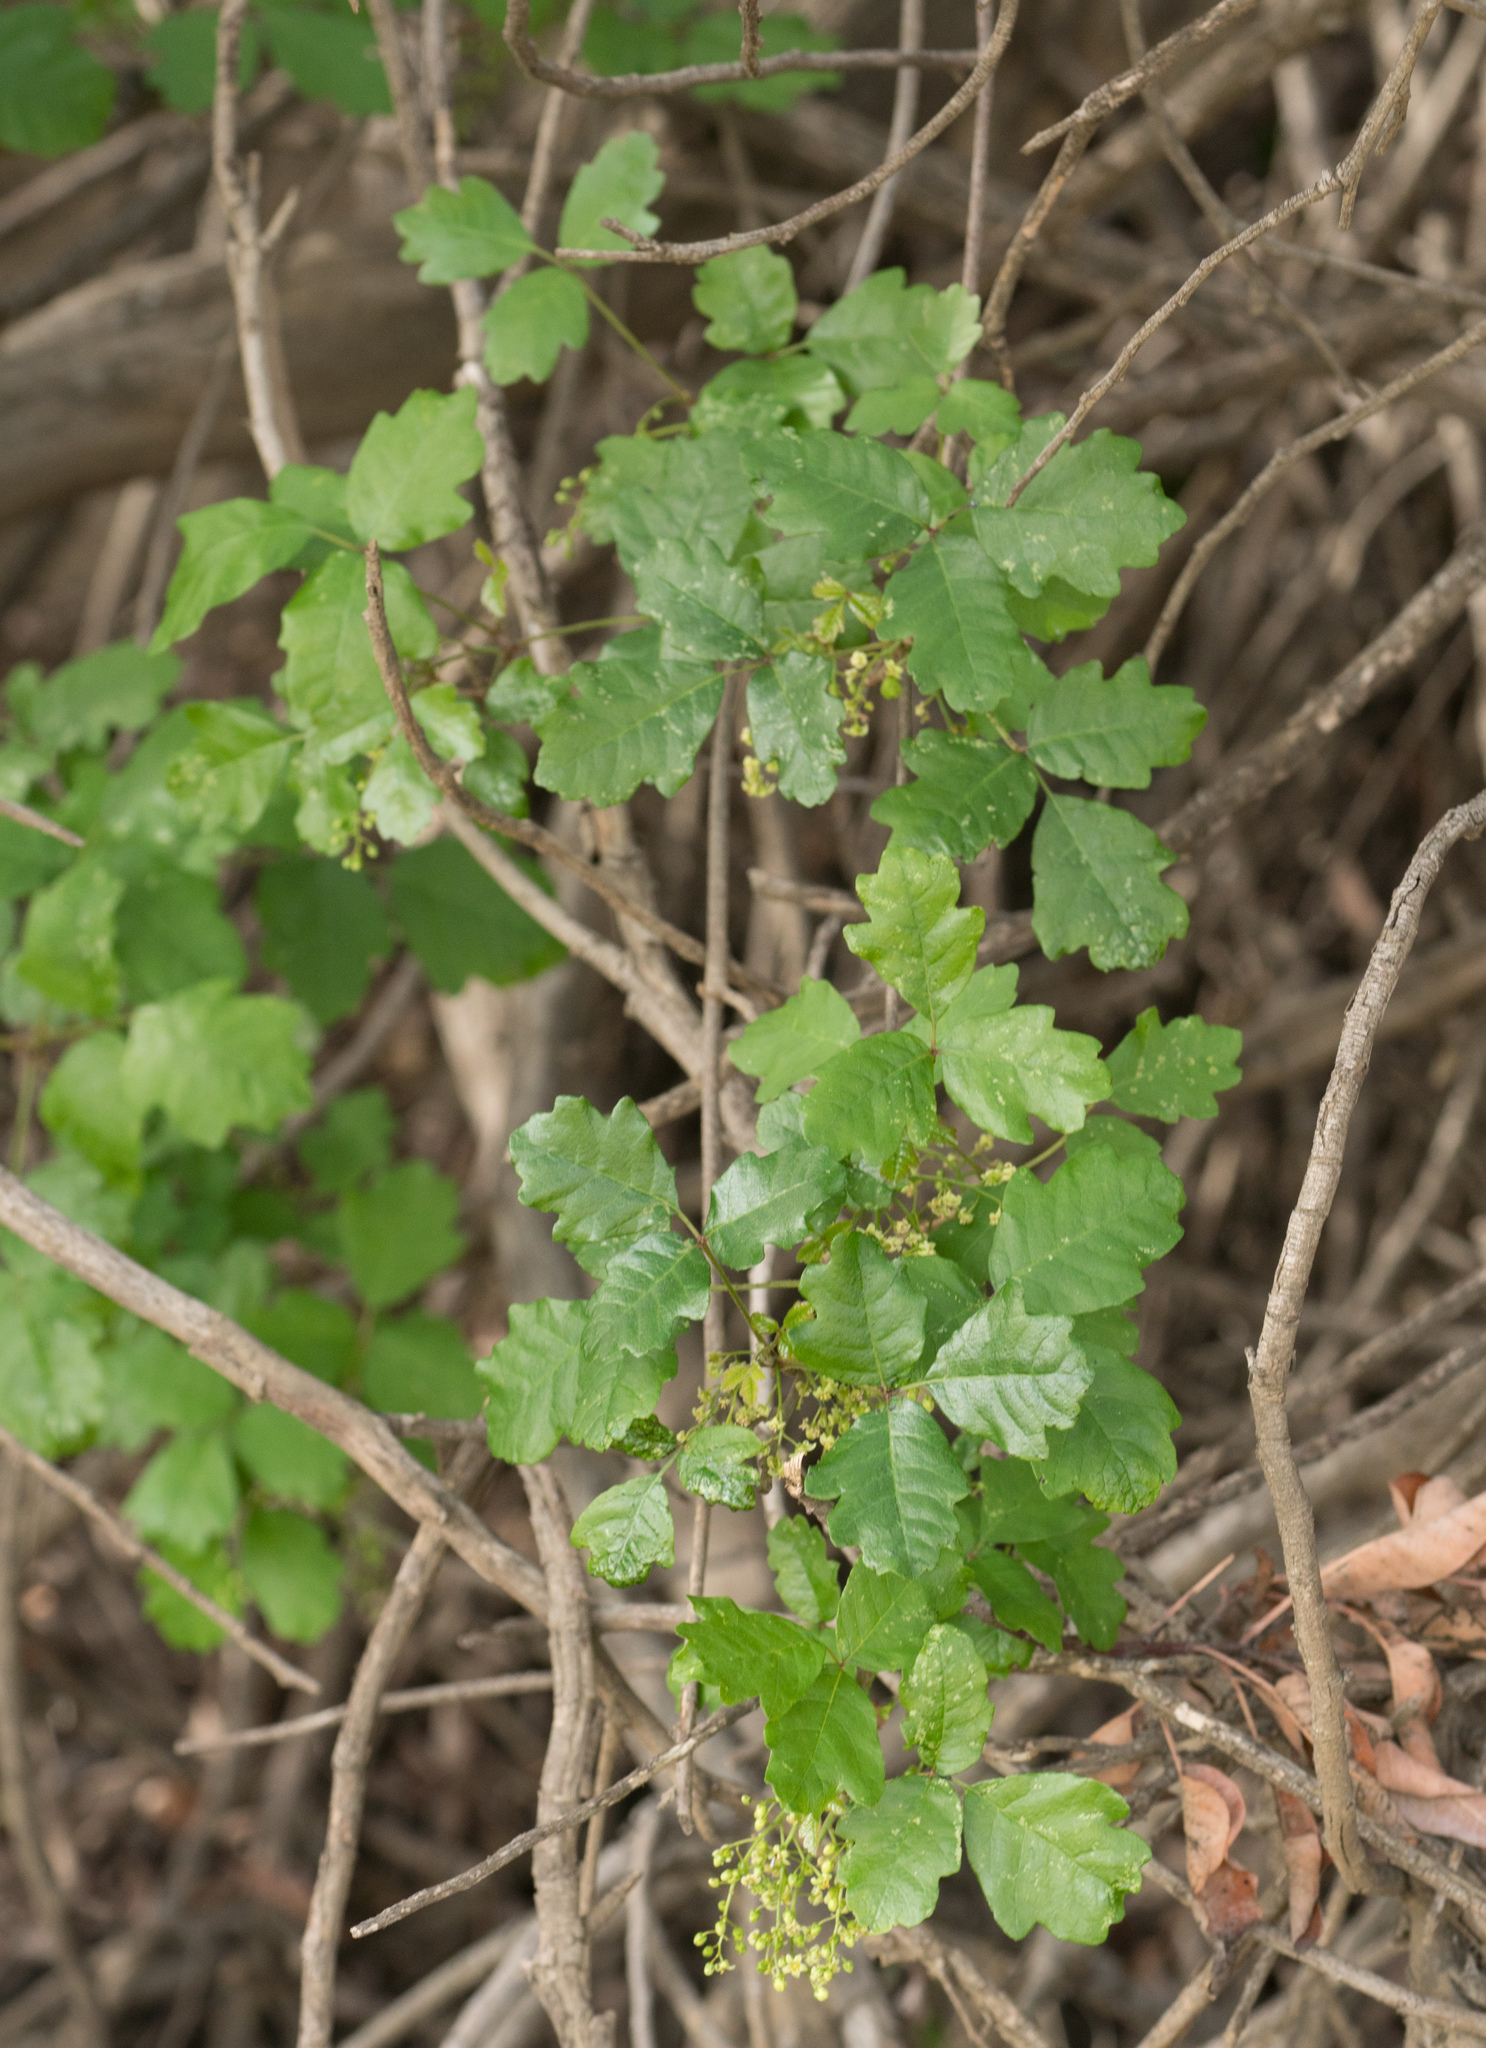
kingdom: Plantae
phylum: Tracheophyta
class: Magnoliopsida
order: Sapindales
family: Anacardiaceae
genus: Toxicodendron
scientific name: Toxicodendron diversilobum
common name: Pacific poison-oak
